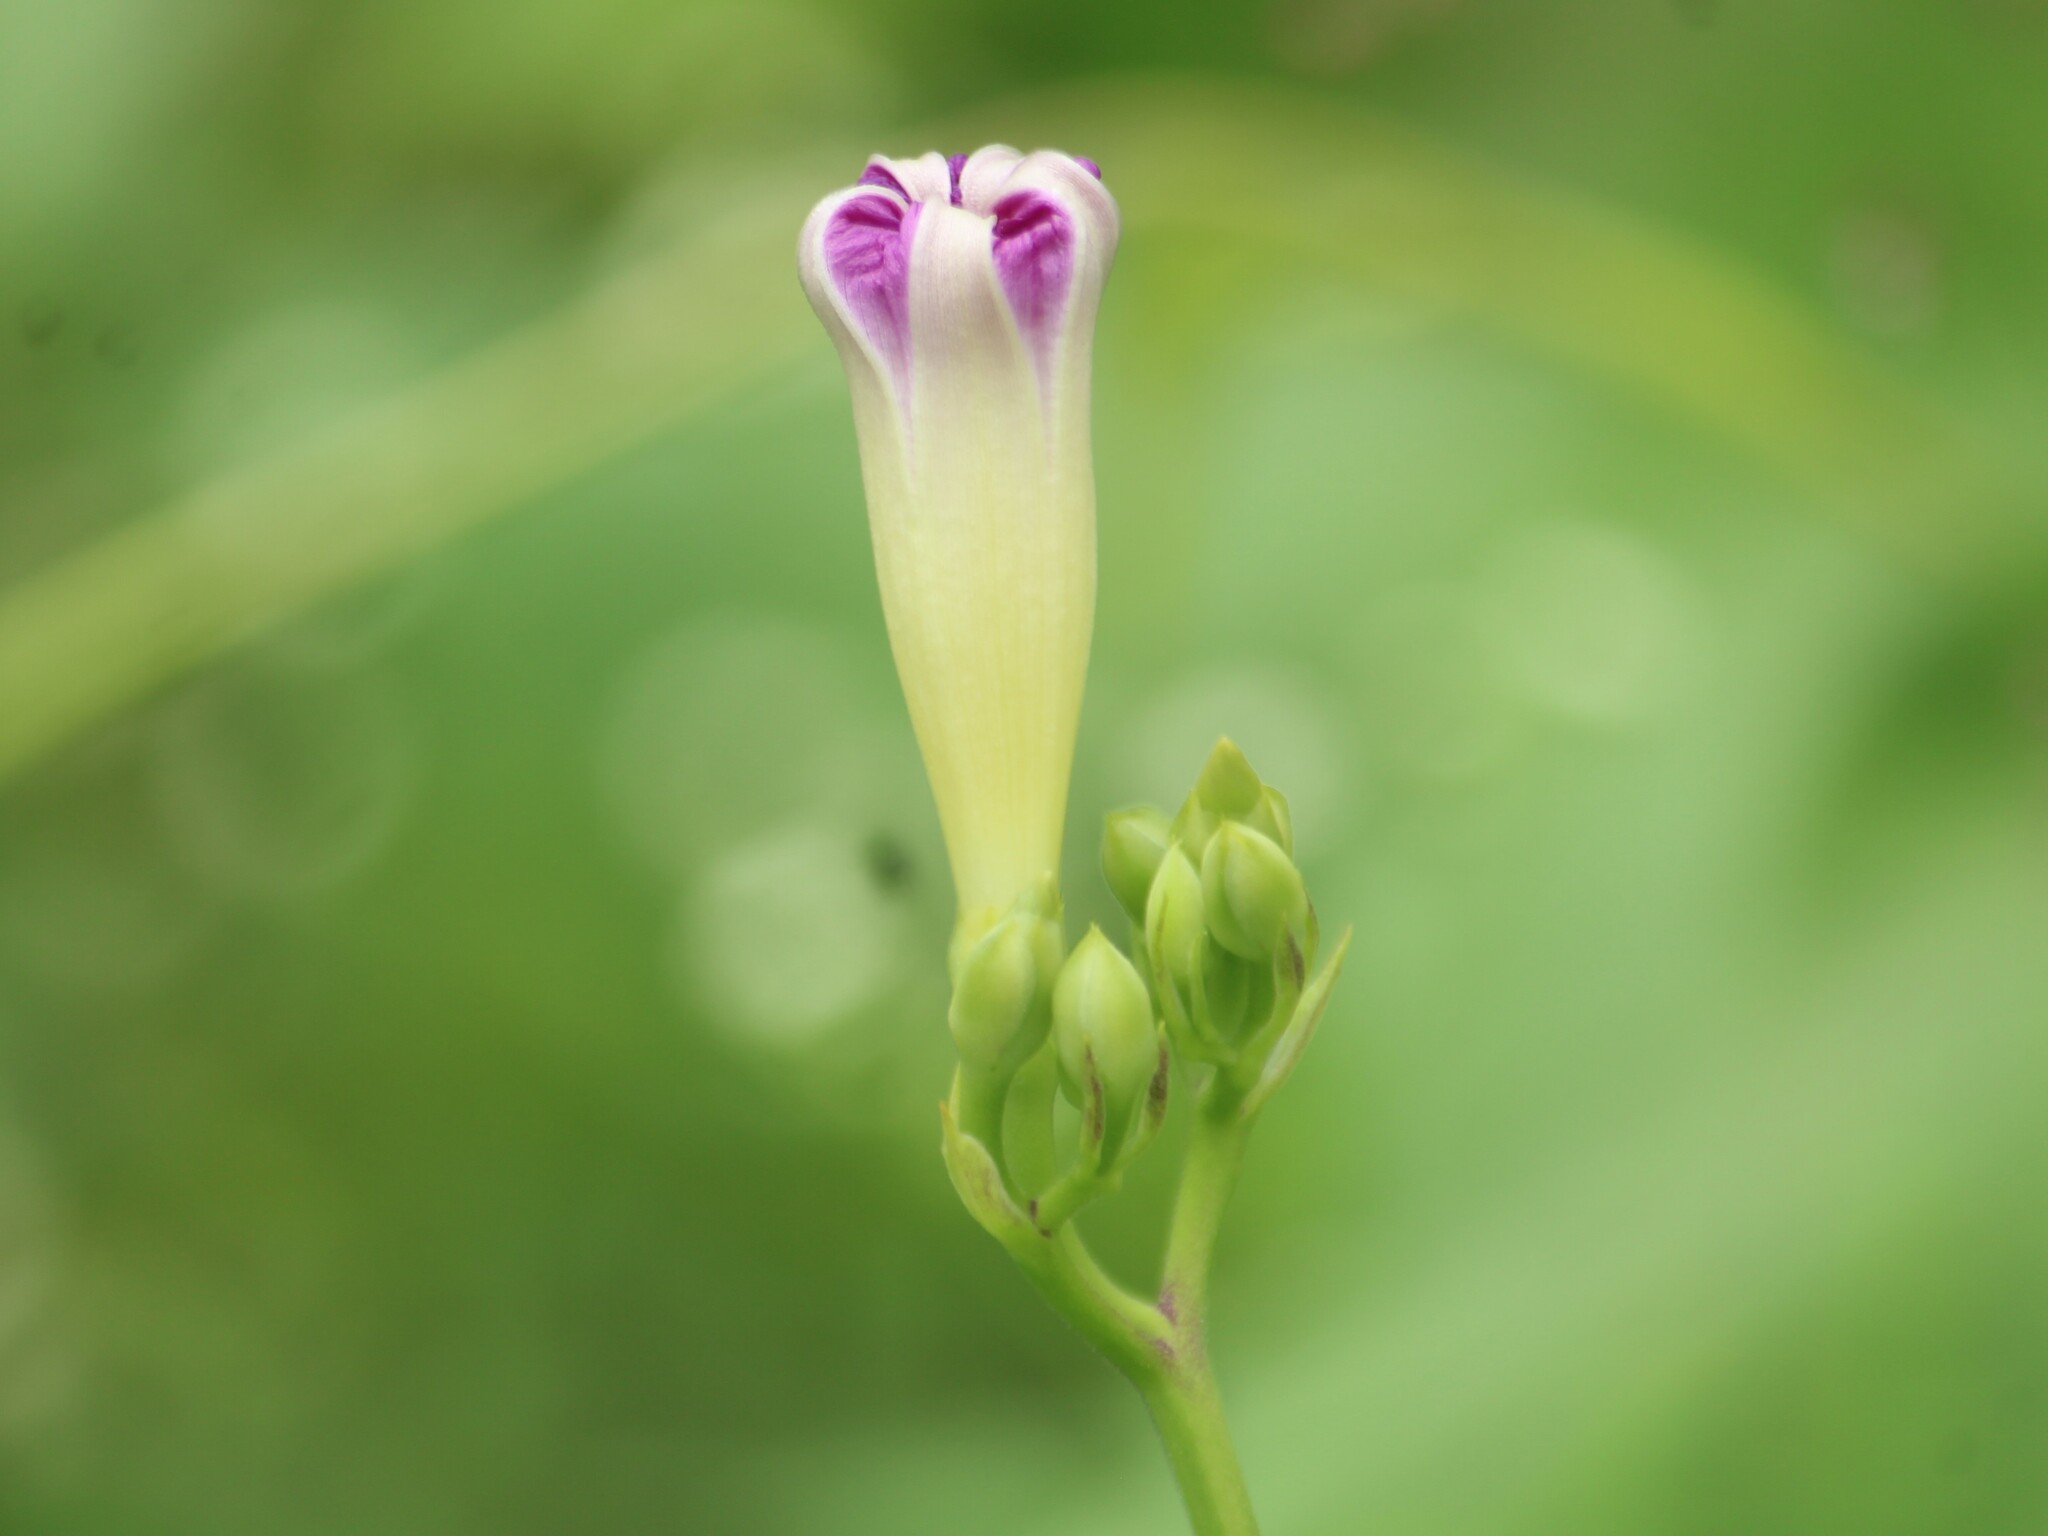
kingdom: Plantae
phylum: Tracheophyta
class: Magnoliopsida
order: Solanales
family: Convolvulaceae
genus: Ipomoea
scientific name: Ipomoea parasitica
